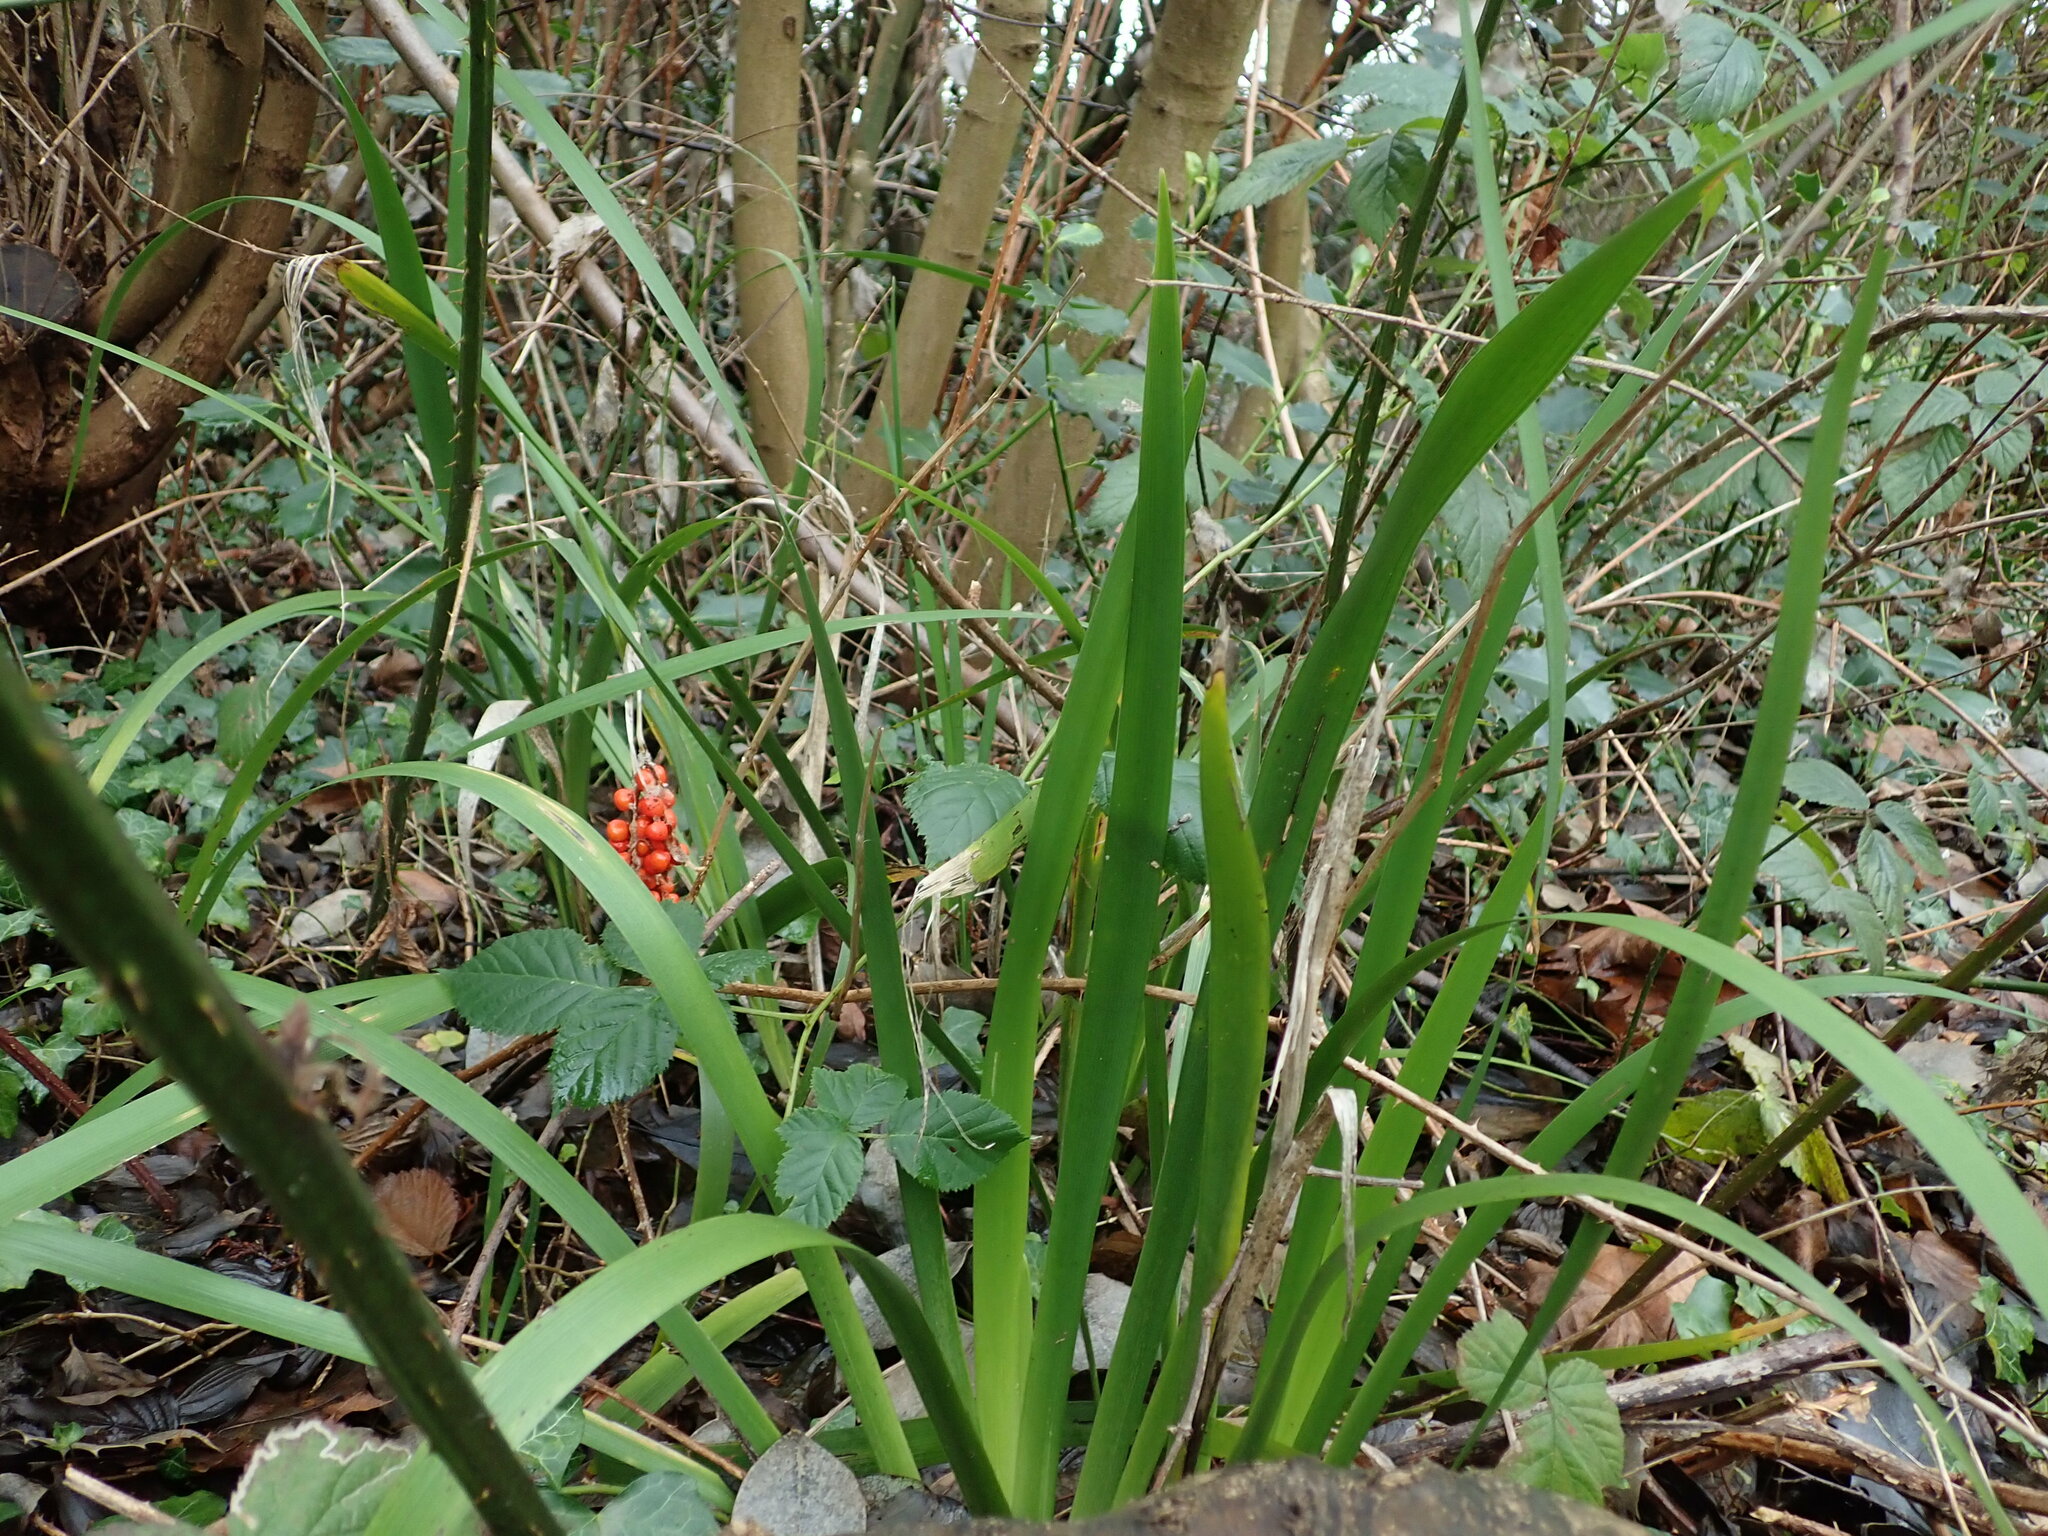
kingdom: Plantae
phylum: Tracheophyta
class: Liliopsida
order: Asparagales
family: Iridaceae
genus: Iris
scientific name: Iris foetidissima
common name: Stinking iris
